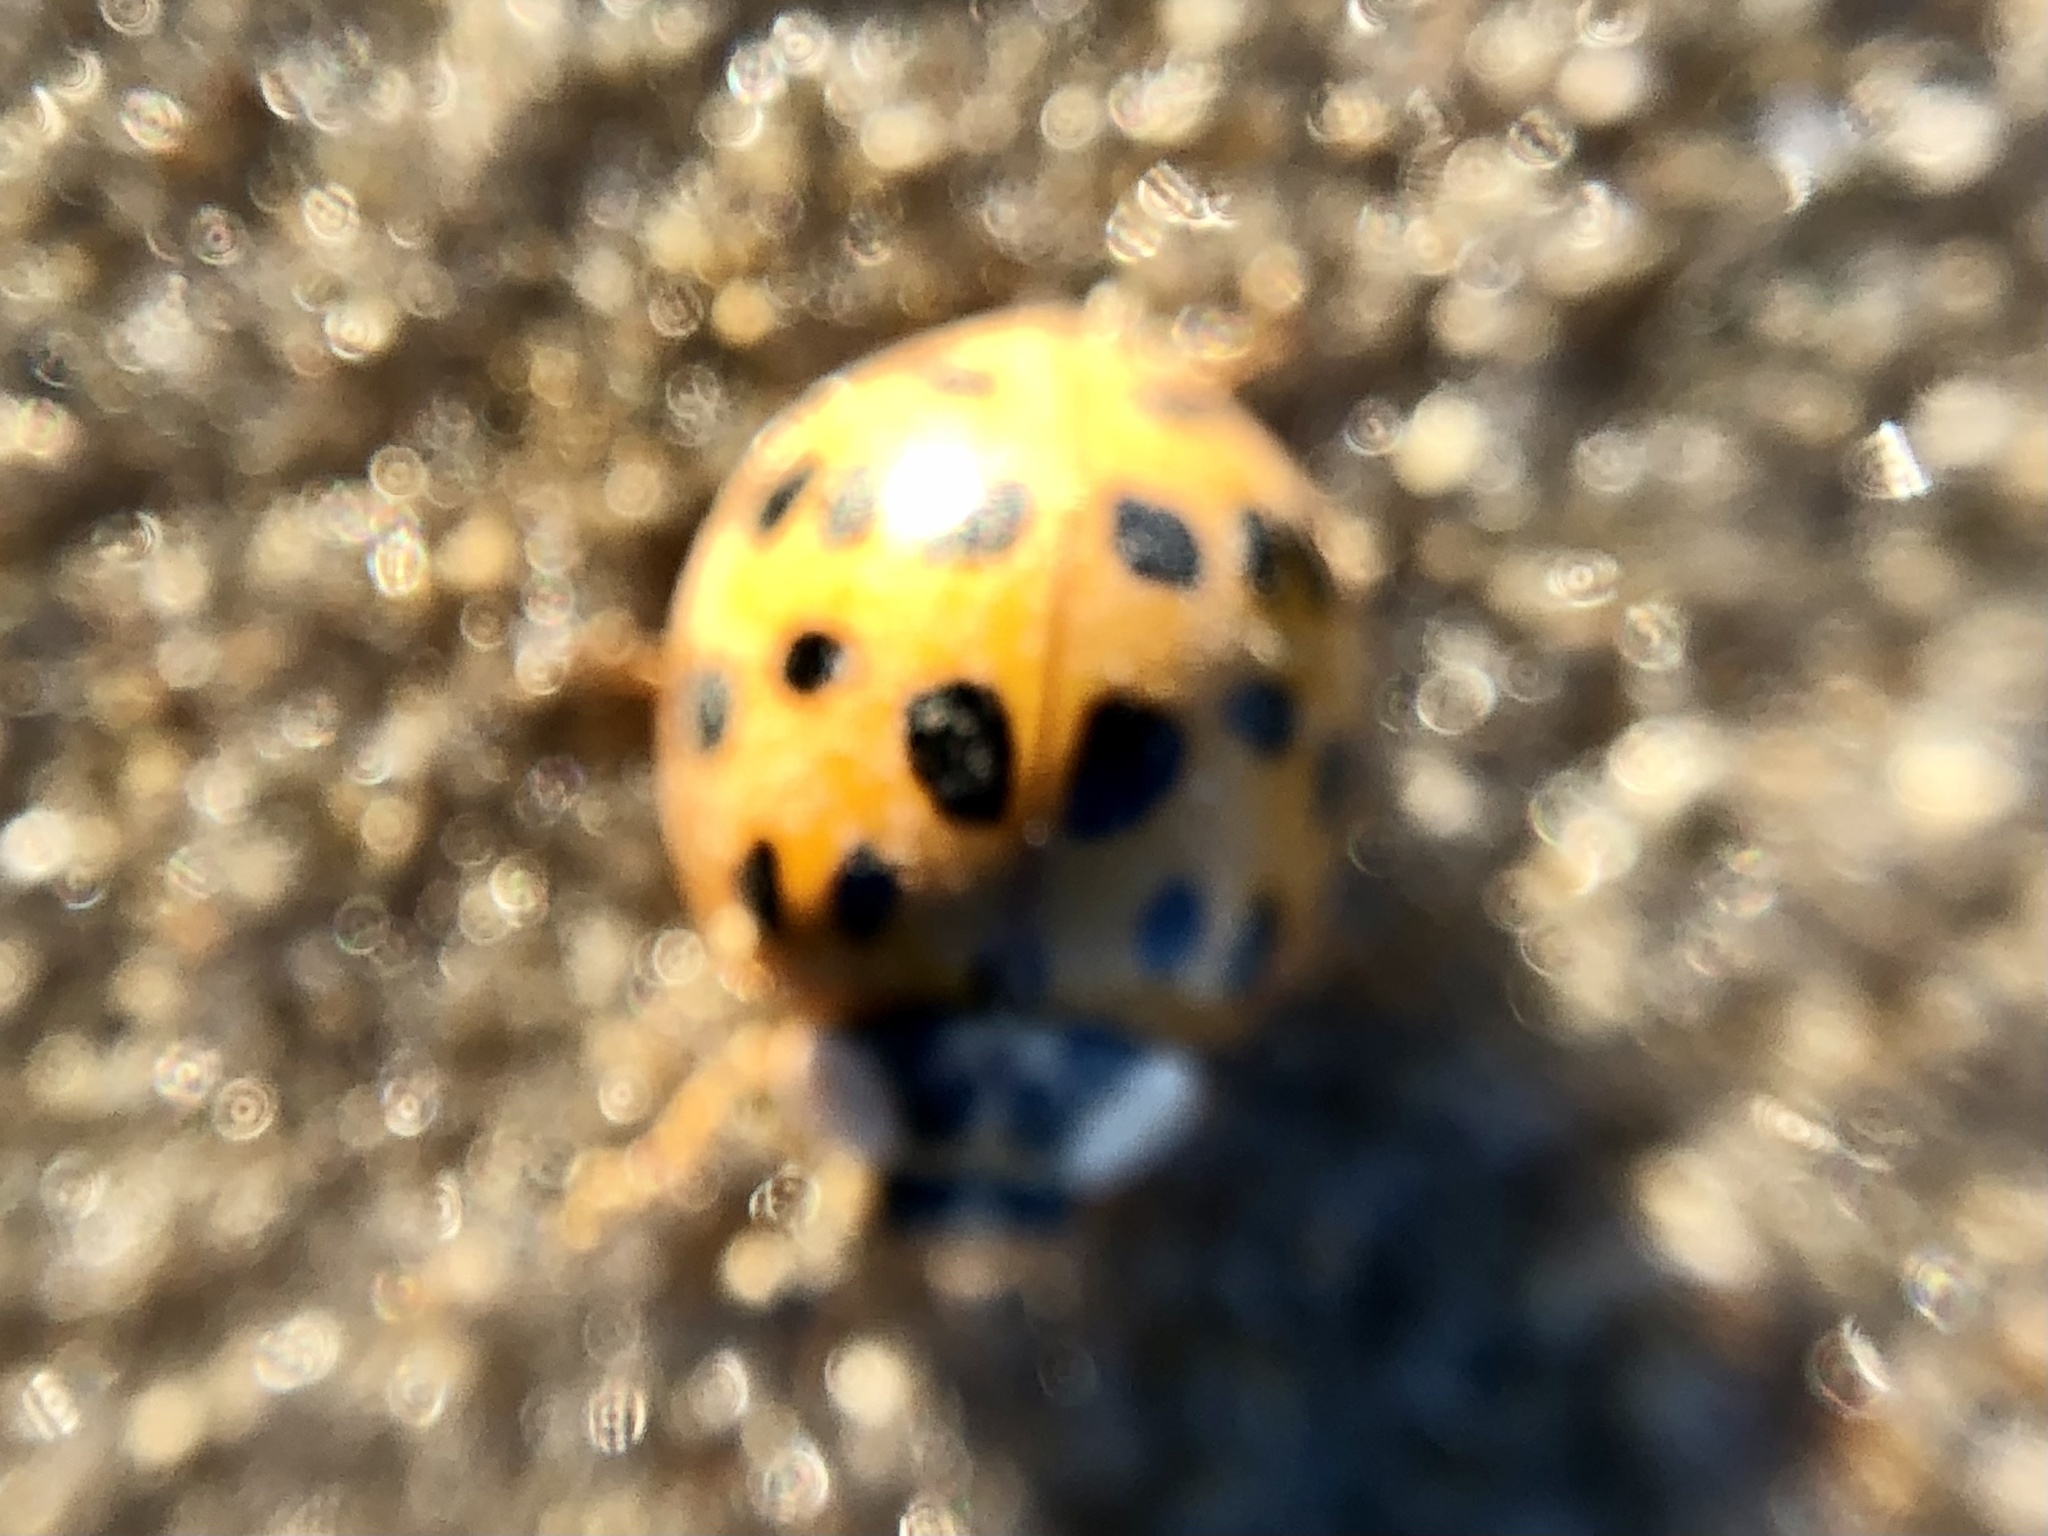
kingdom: Animalia
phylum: Arthropoda
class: Insecta
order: Coleoptera
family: Coccinellidae
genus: Harmonia
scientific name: Harmonia axyridis
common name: Harlequin ladybird
